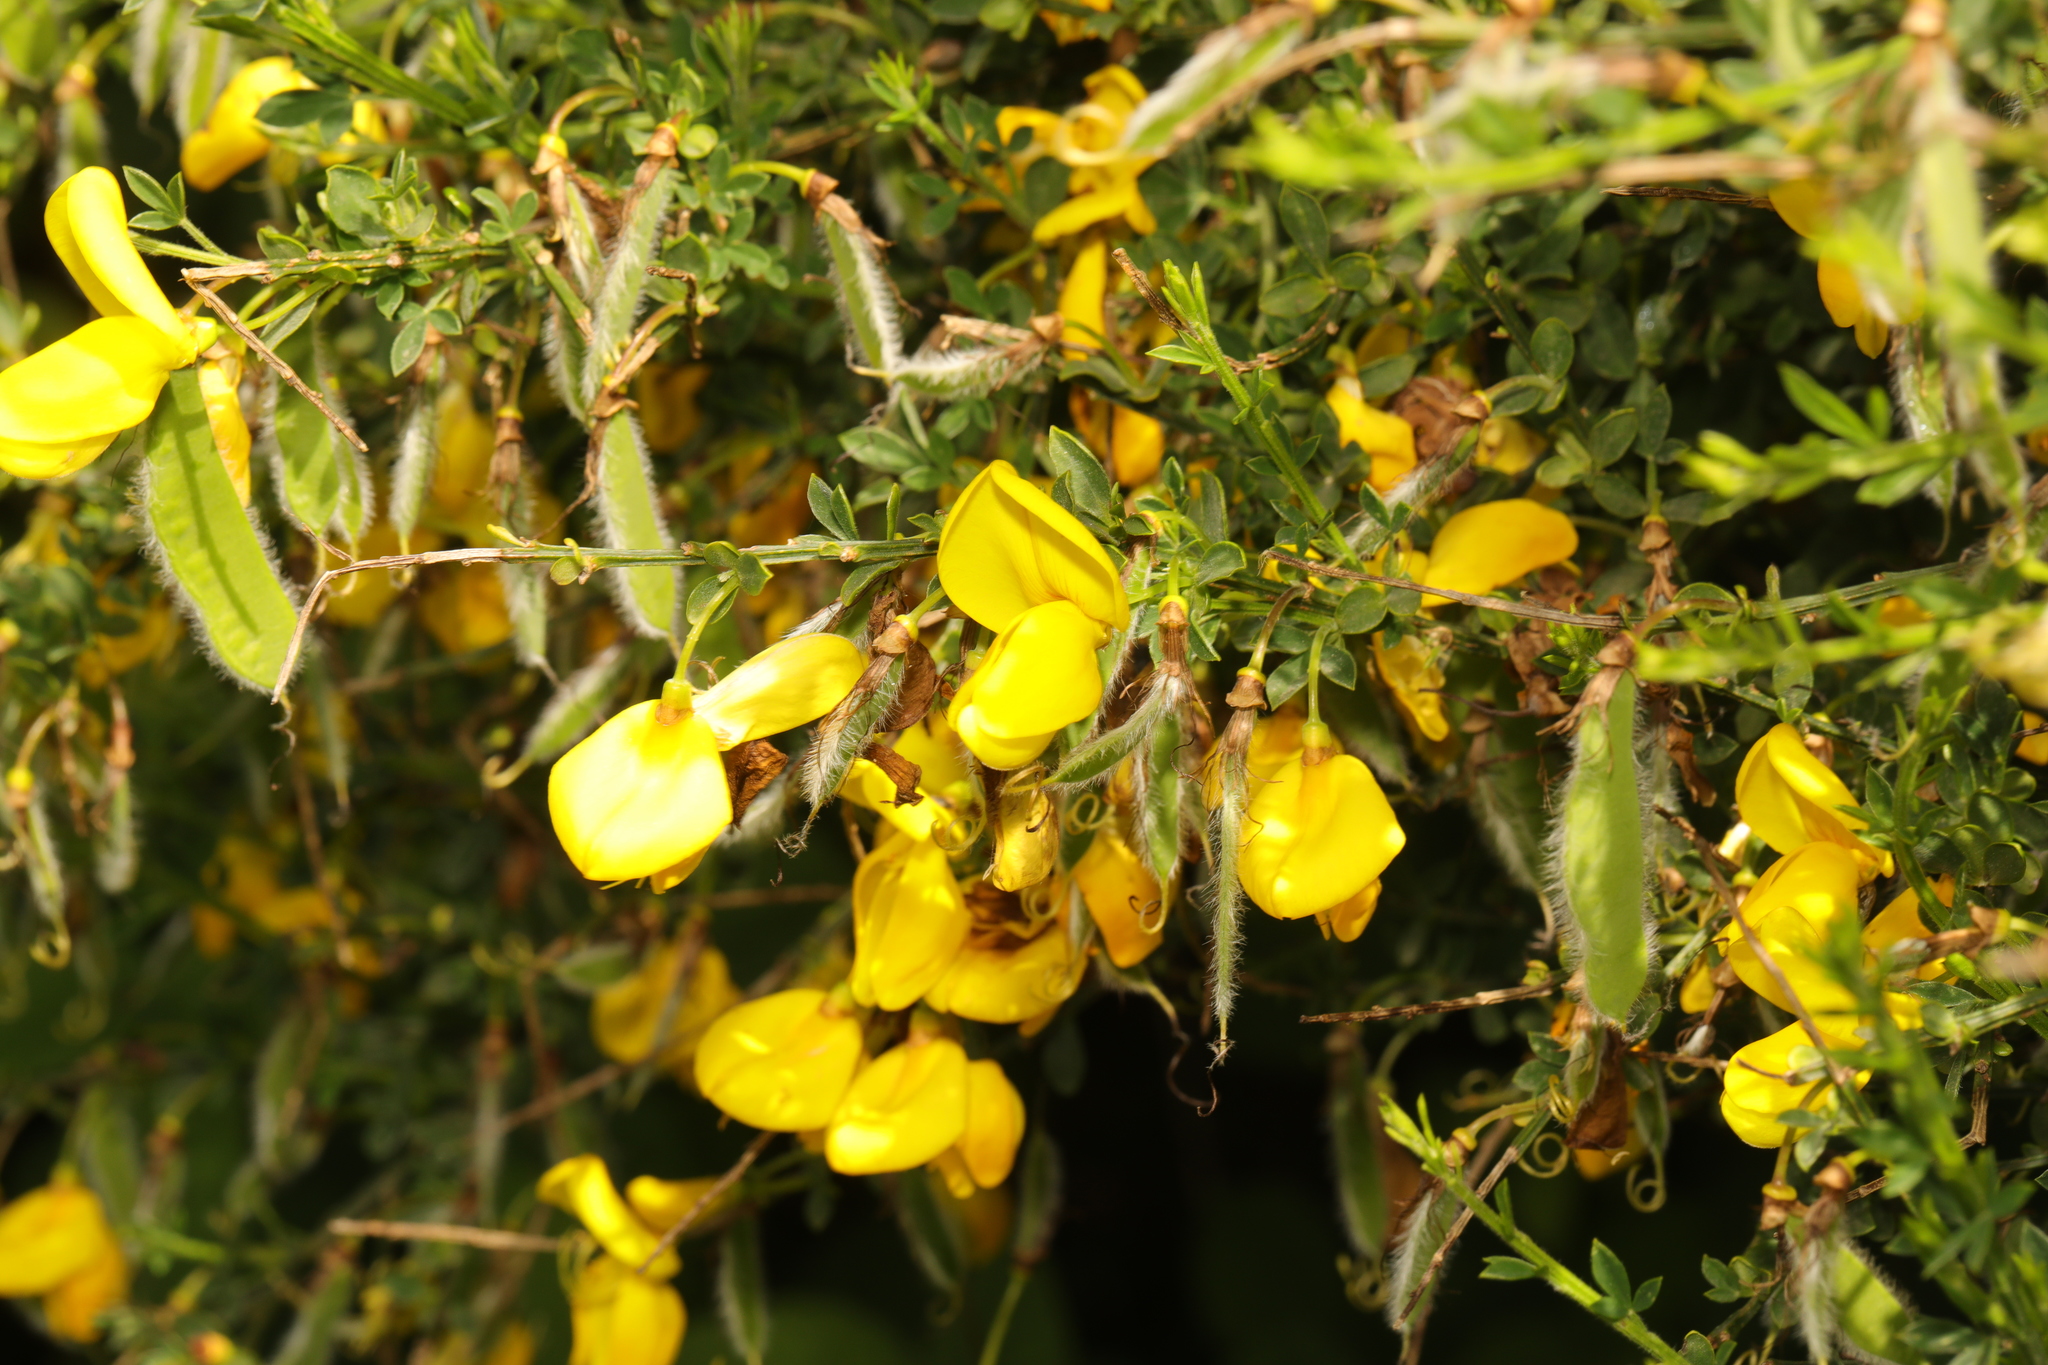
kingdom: Plantae
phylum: Tracheophyta
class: Magnoliopsida
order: Fabales
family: Fabaceae
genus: Cytisus
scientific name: Cytisus scoparius
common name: Scotch broom
